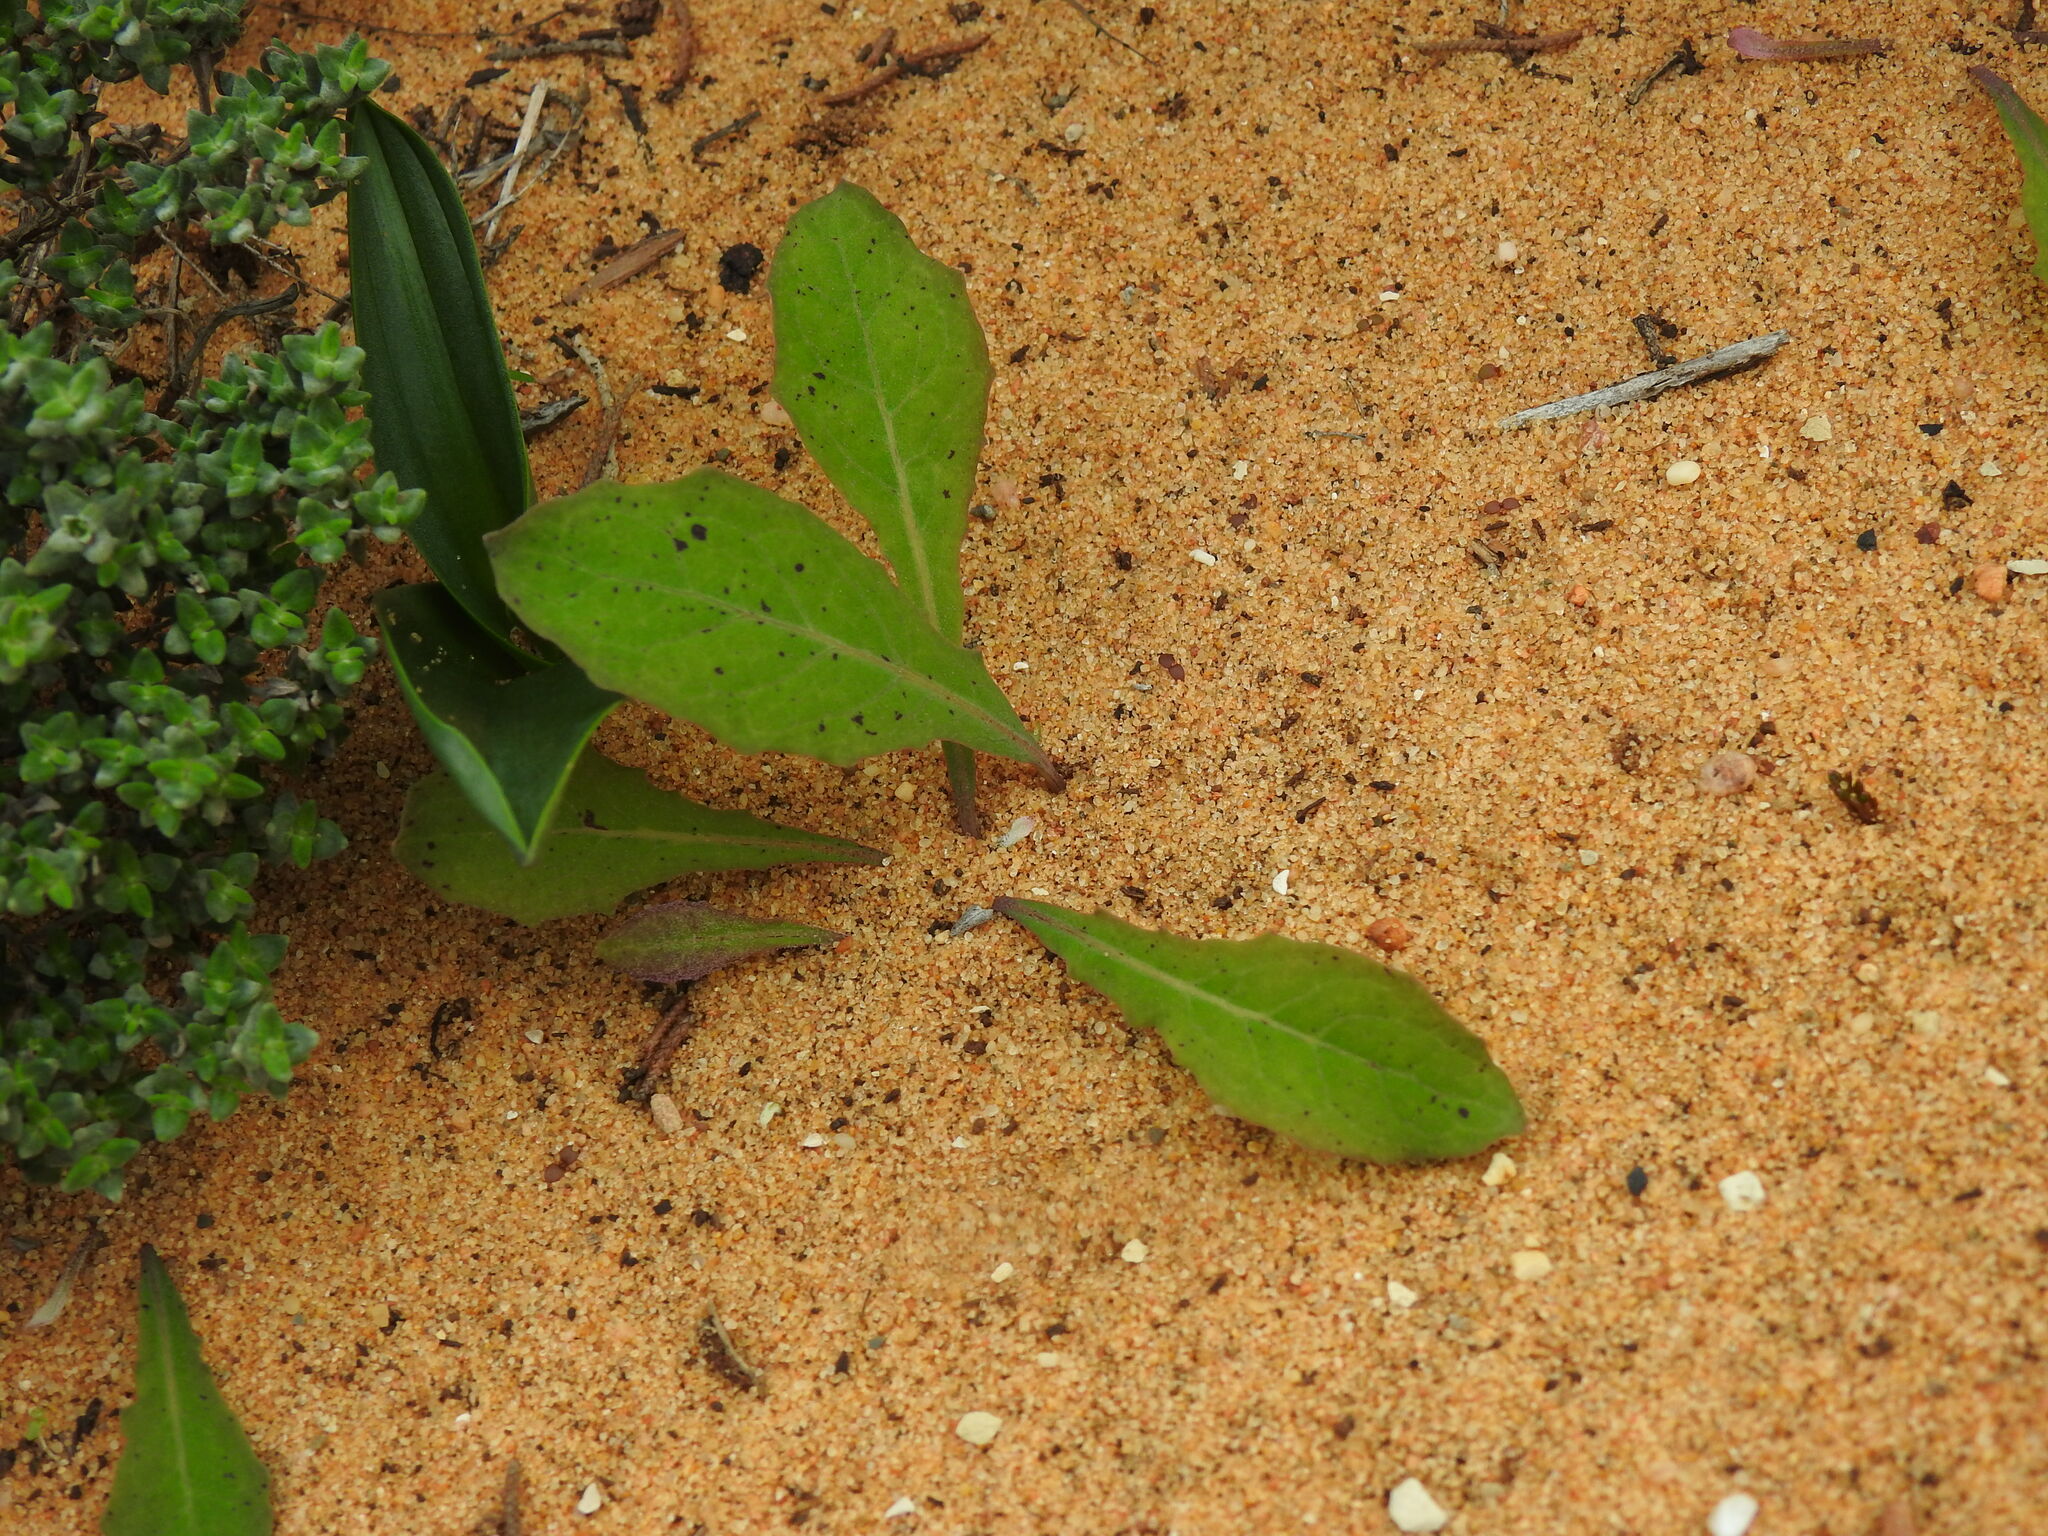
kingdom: Plantae
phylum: Tracheophyta
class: Magnoliopsida
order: Asterales
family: Asteraceae
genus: Aetheorhiza
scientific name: Aetheorhiza bulbosa
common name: Tuberous hawk's-beard
